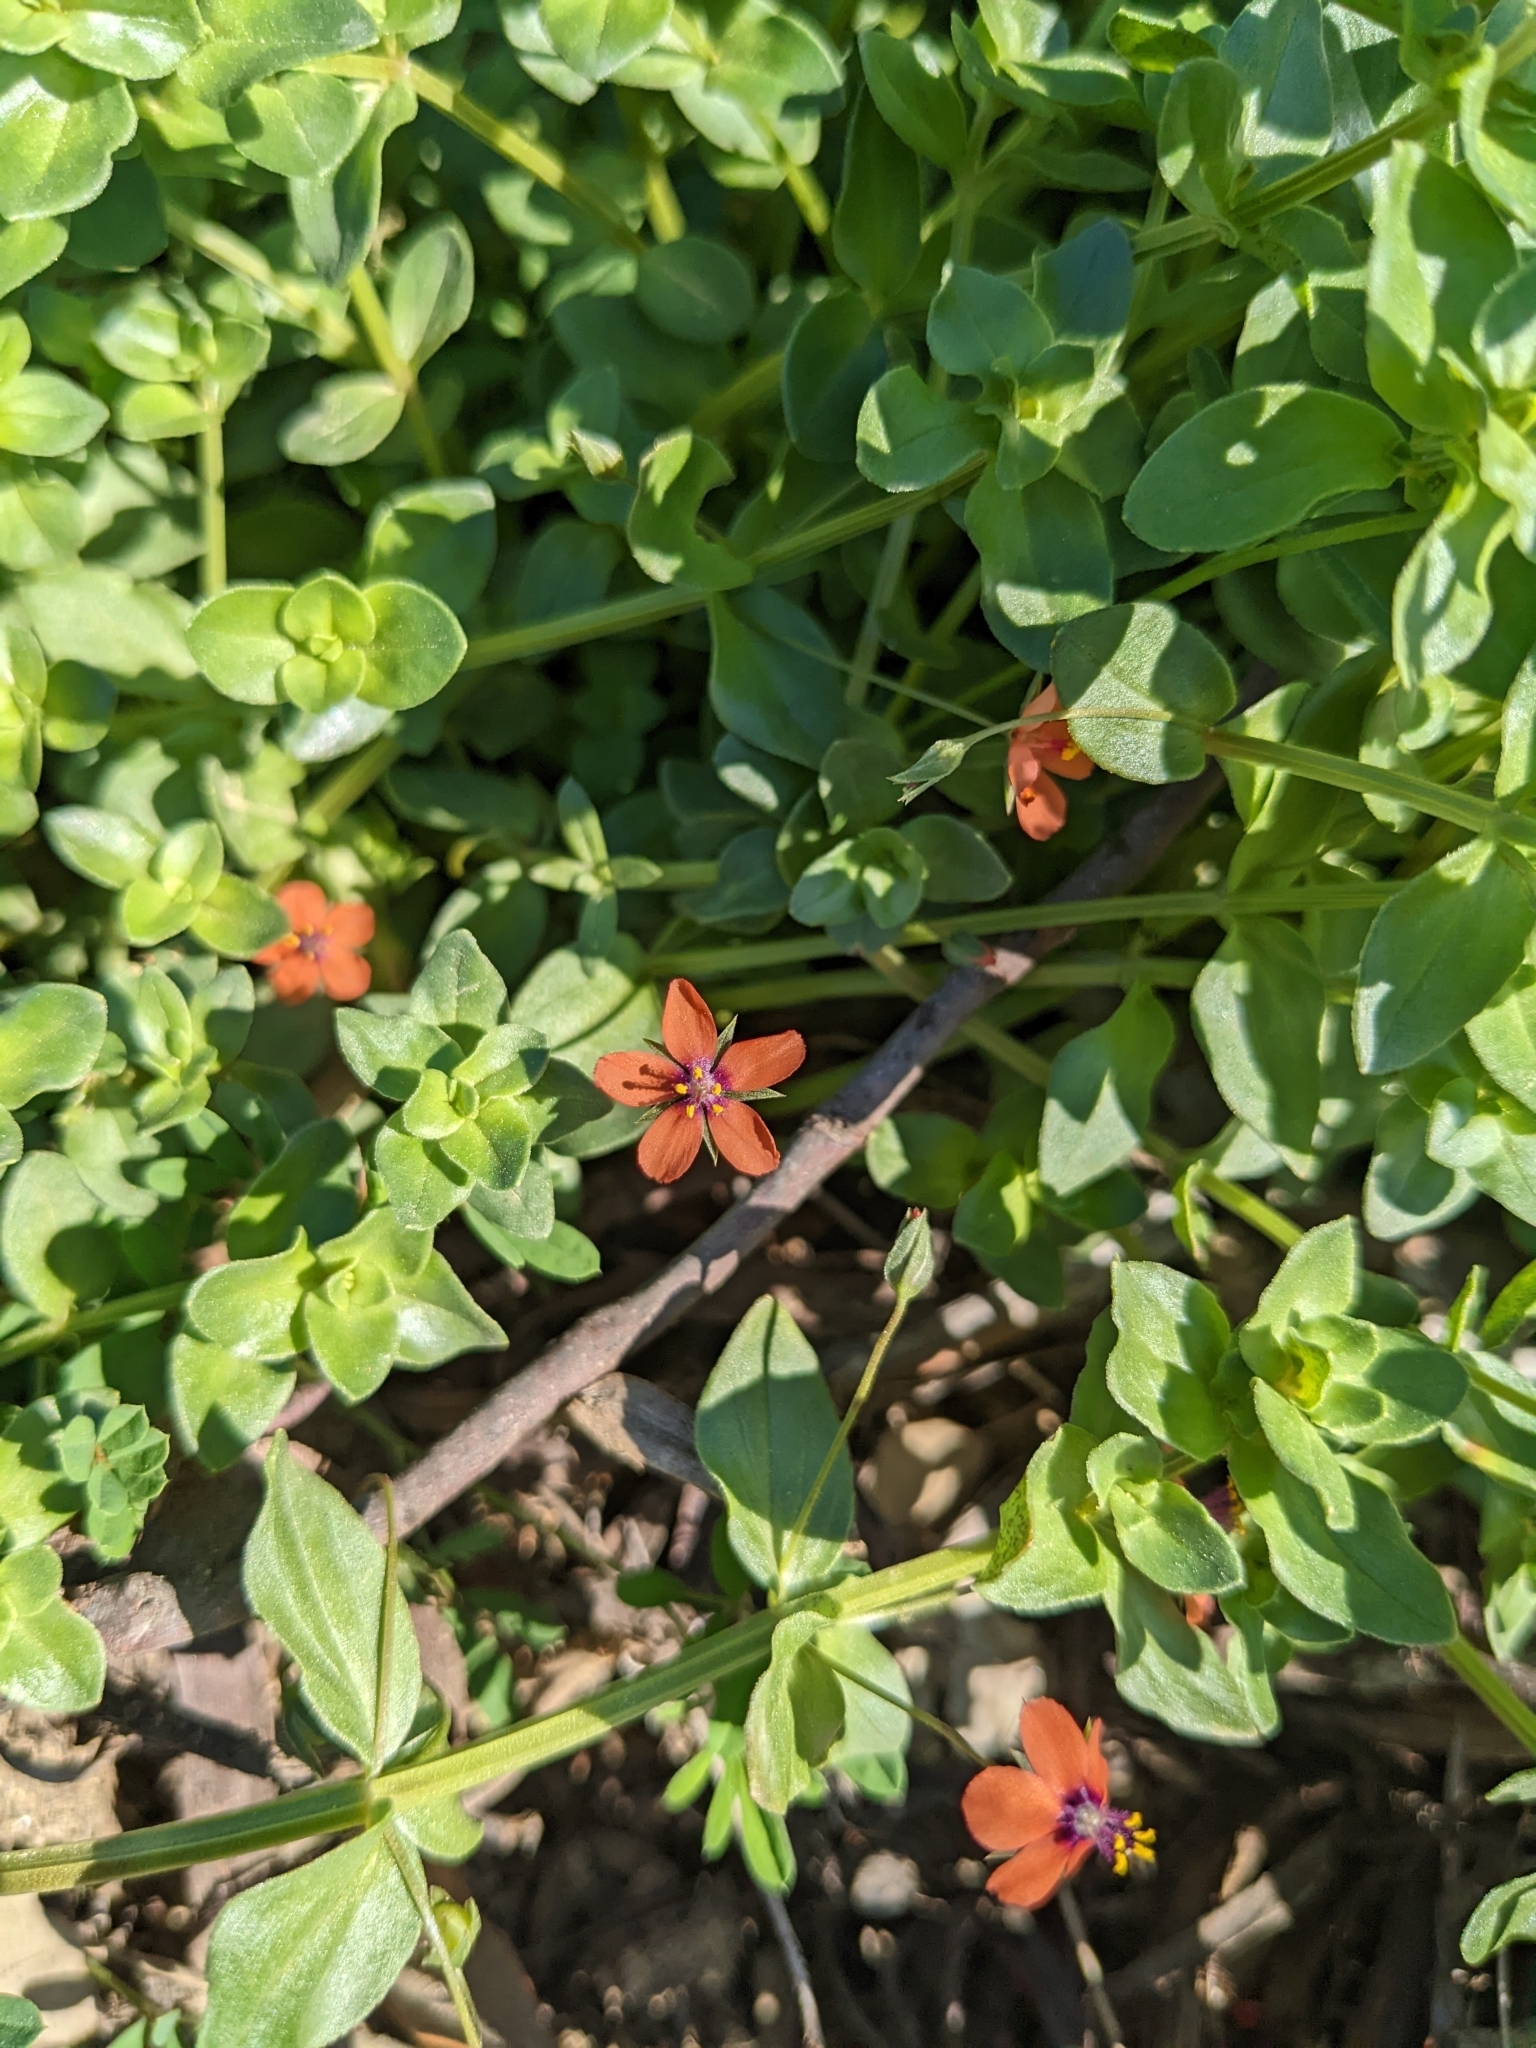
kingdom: Plantae
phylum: Tracheophyta
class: Magnoliopsida
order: Ericales
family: Primulaceae
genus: Lysimachia
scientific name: Lysimachia arvensis
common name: Scarlet pimpernel
